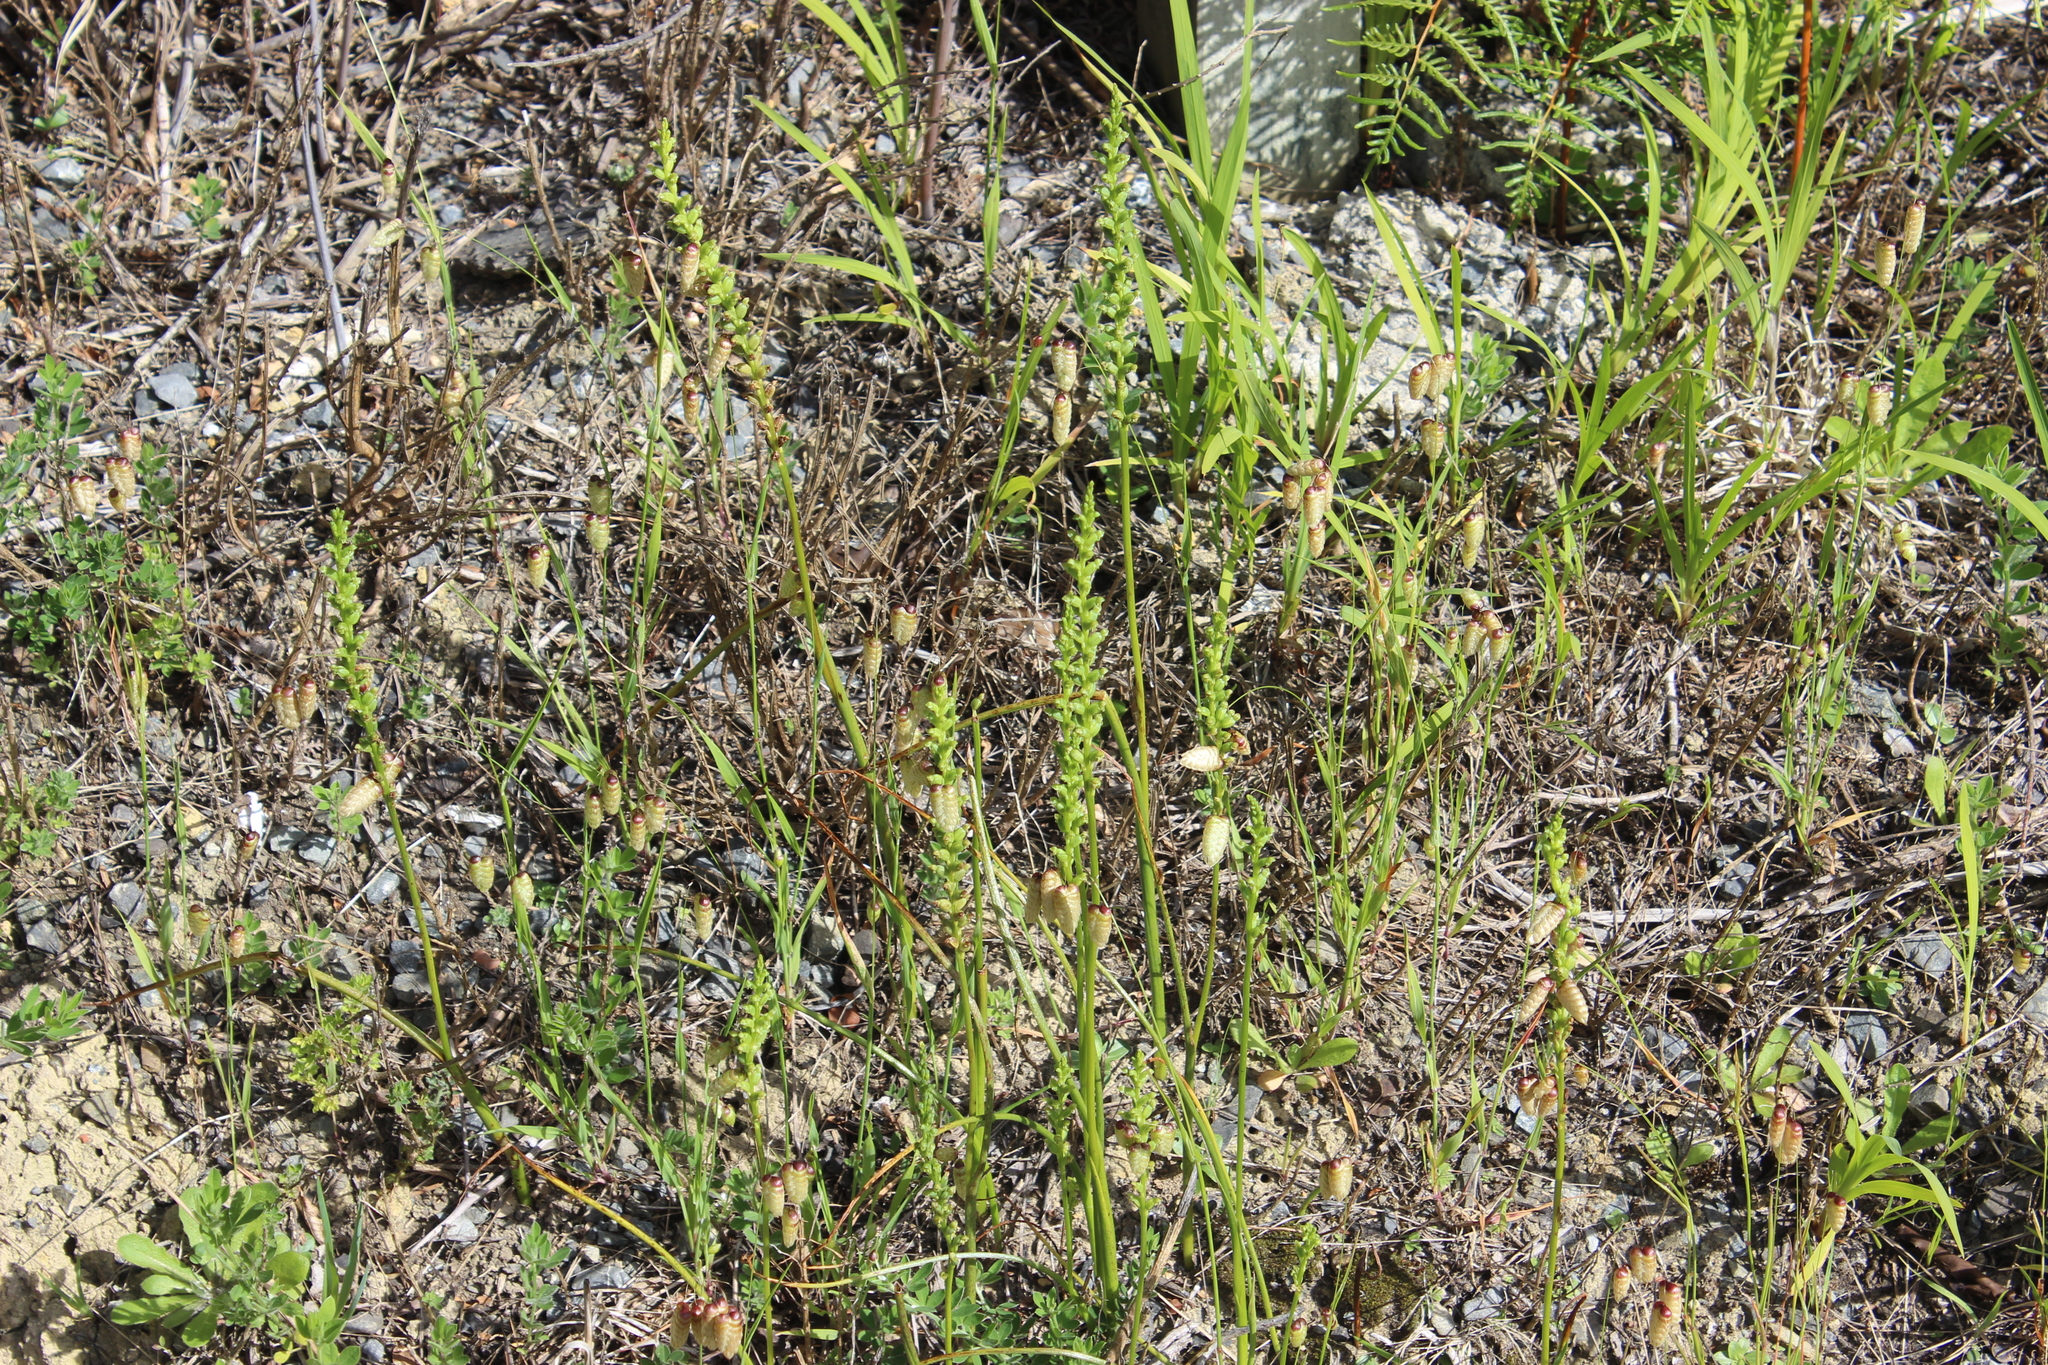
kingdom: Plantae
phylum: Tracheophyta
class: Liliopsida
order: Asparagales
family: Orchidaceae
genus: Microtis
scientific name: Microtis unifolia
